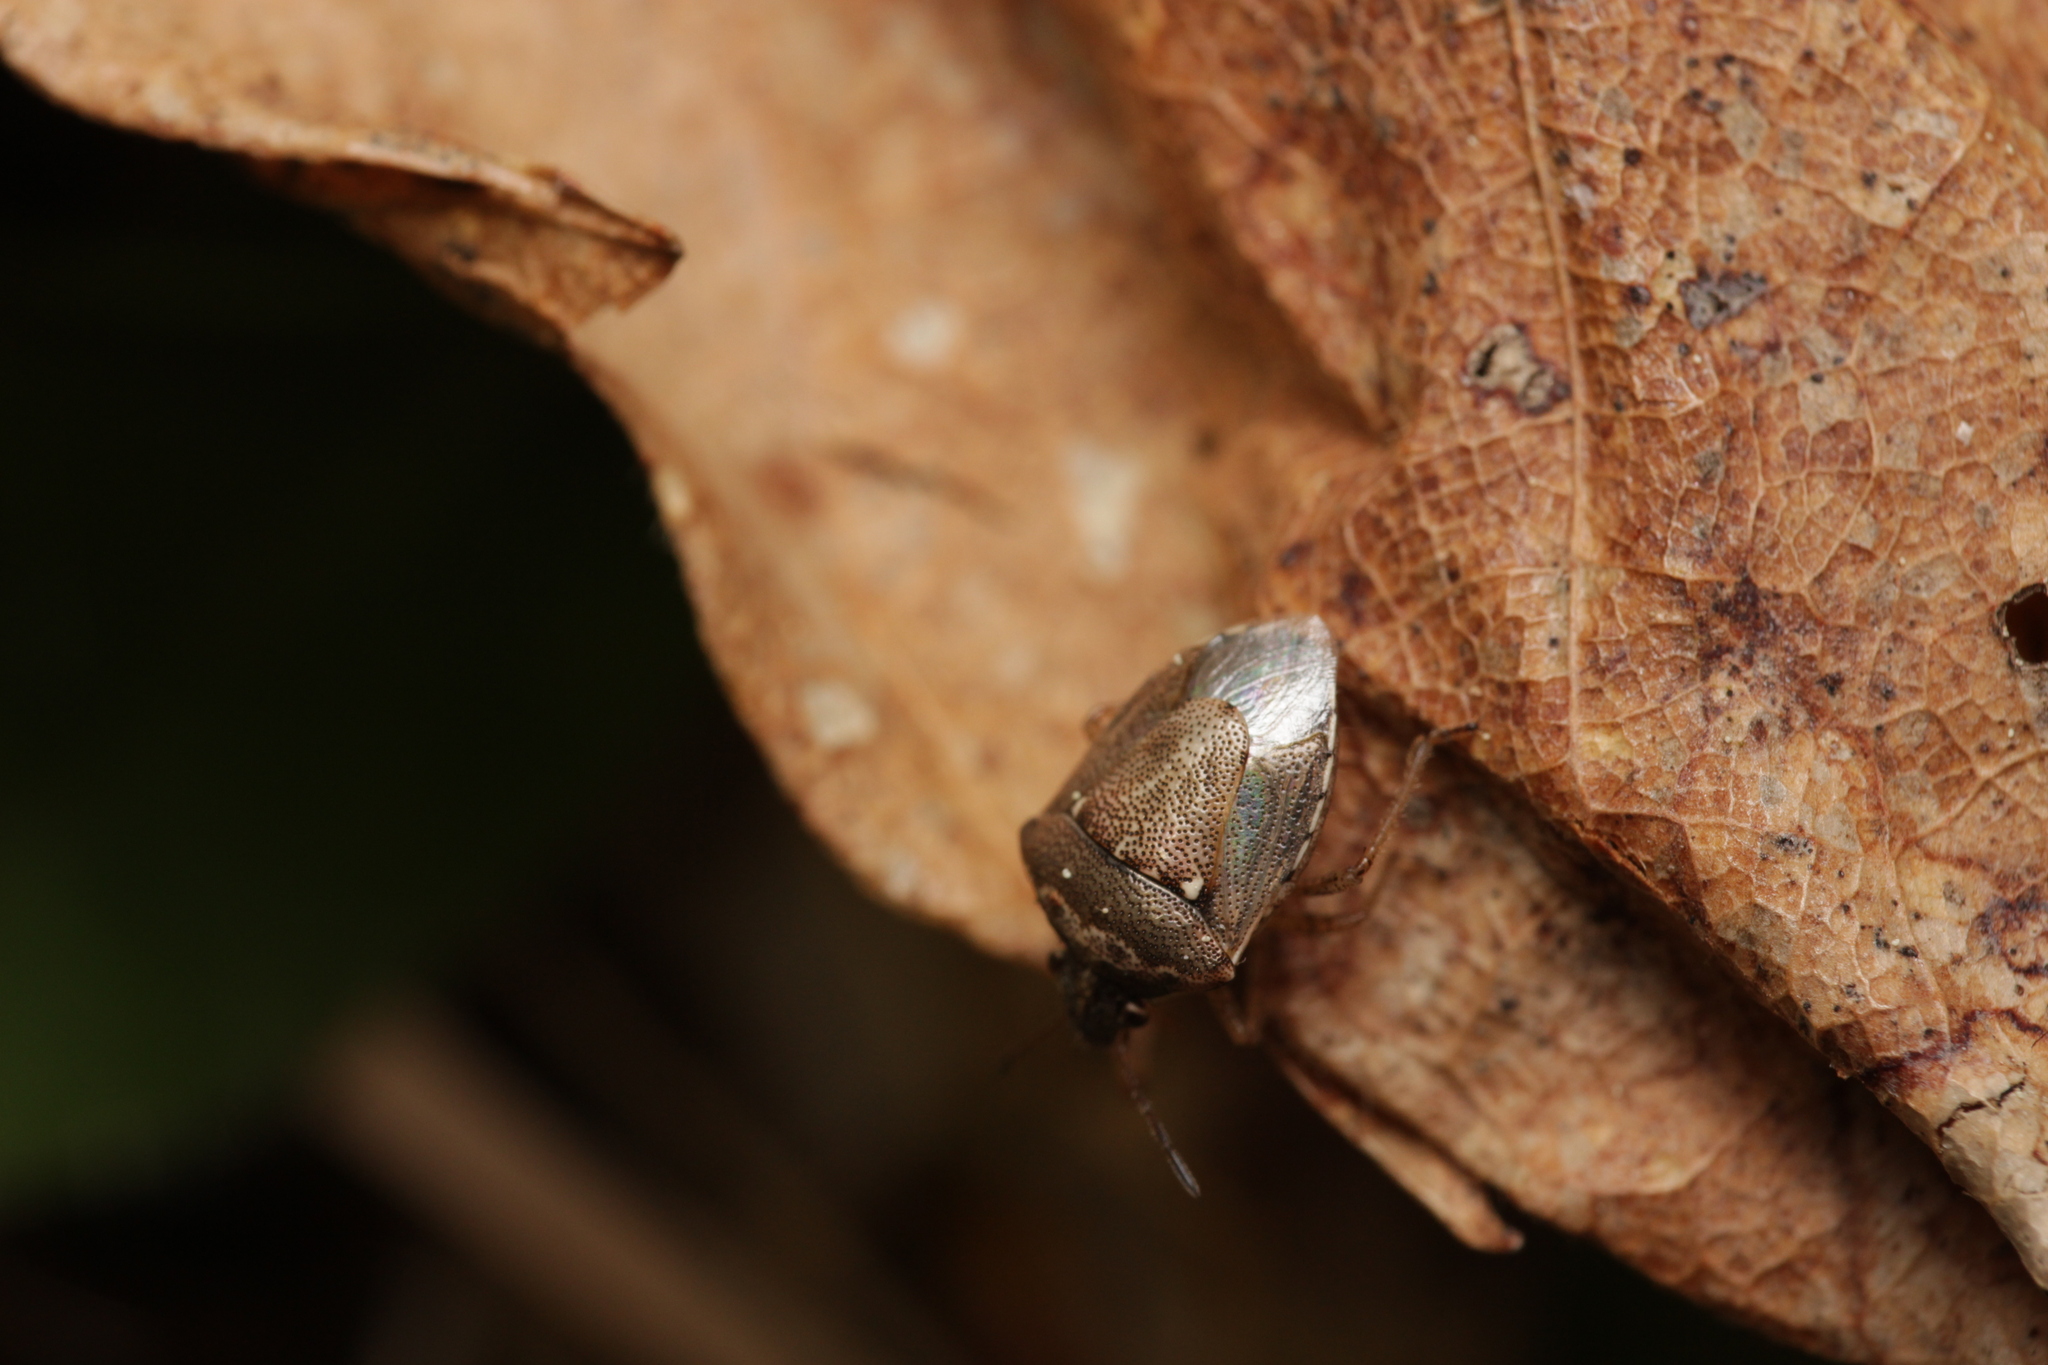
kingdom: Animalia
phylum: Arthropoda
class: Insecta
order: Hemiptera
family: Pentatomidae
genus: Eysarcoris
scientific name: Eysarcoris ventralis
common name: White-spotted stink bug
